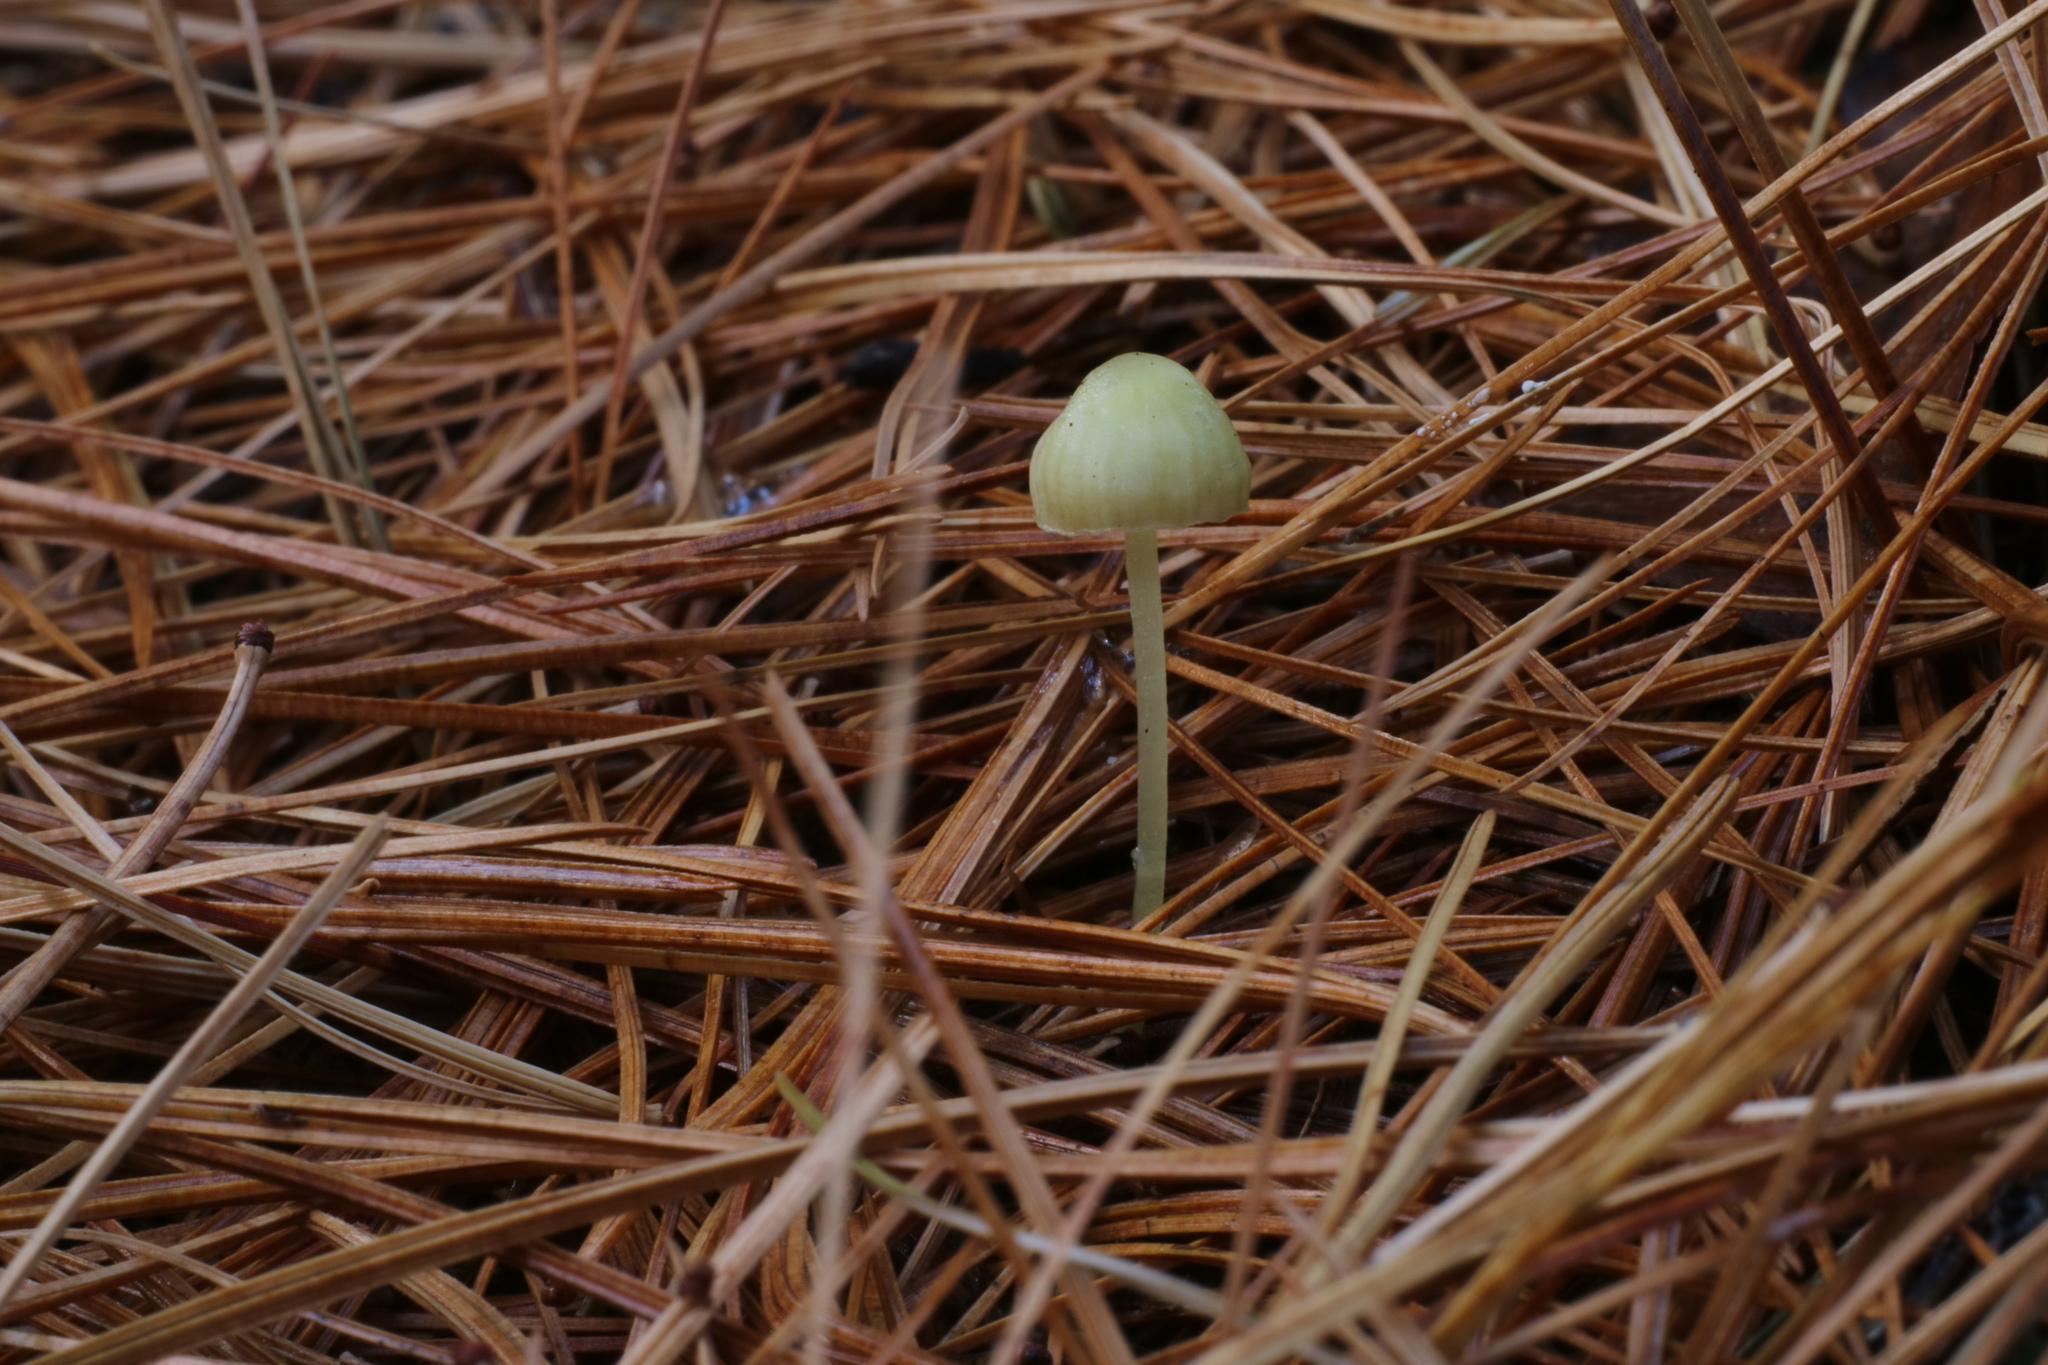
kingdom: Fungi
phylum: Basidiomycota
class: Agaricomycetes
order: Agaricales
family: Mycenaceae
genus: Mycena
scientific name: Mycena epipterygia
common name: Yellowleg bonnet
